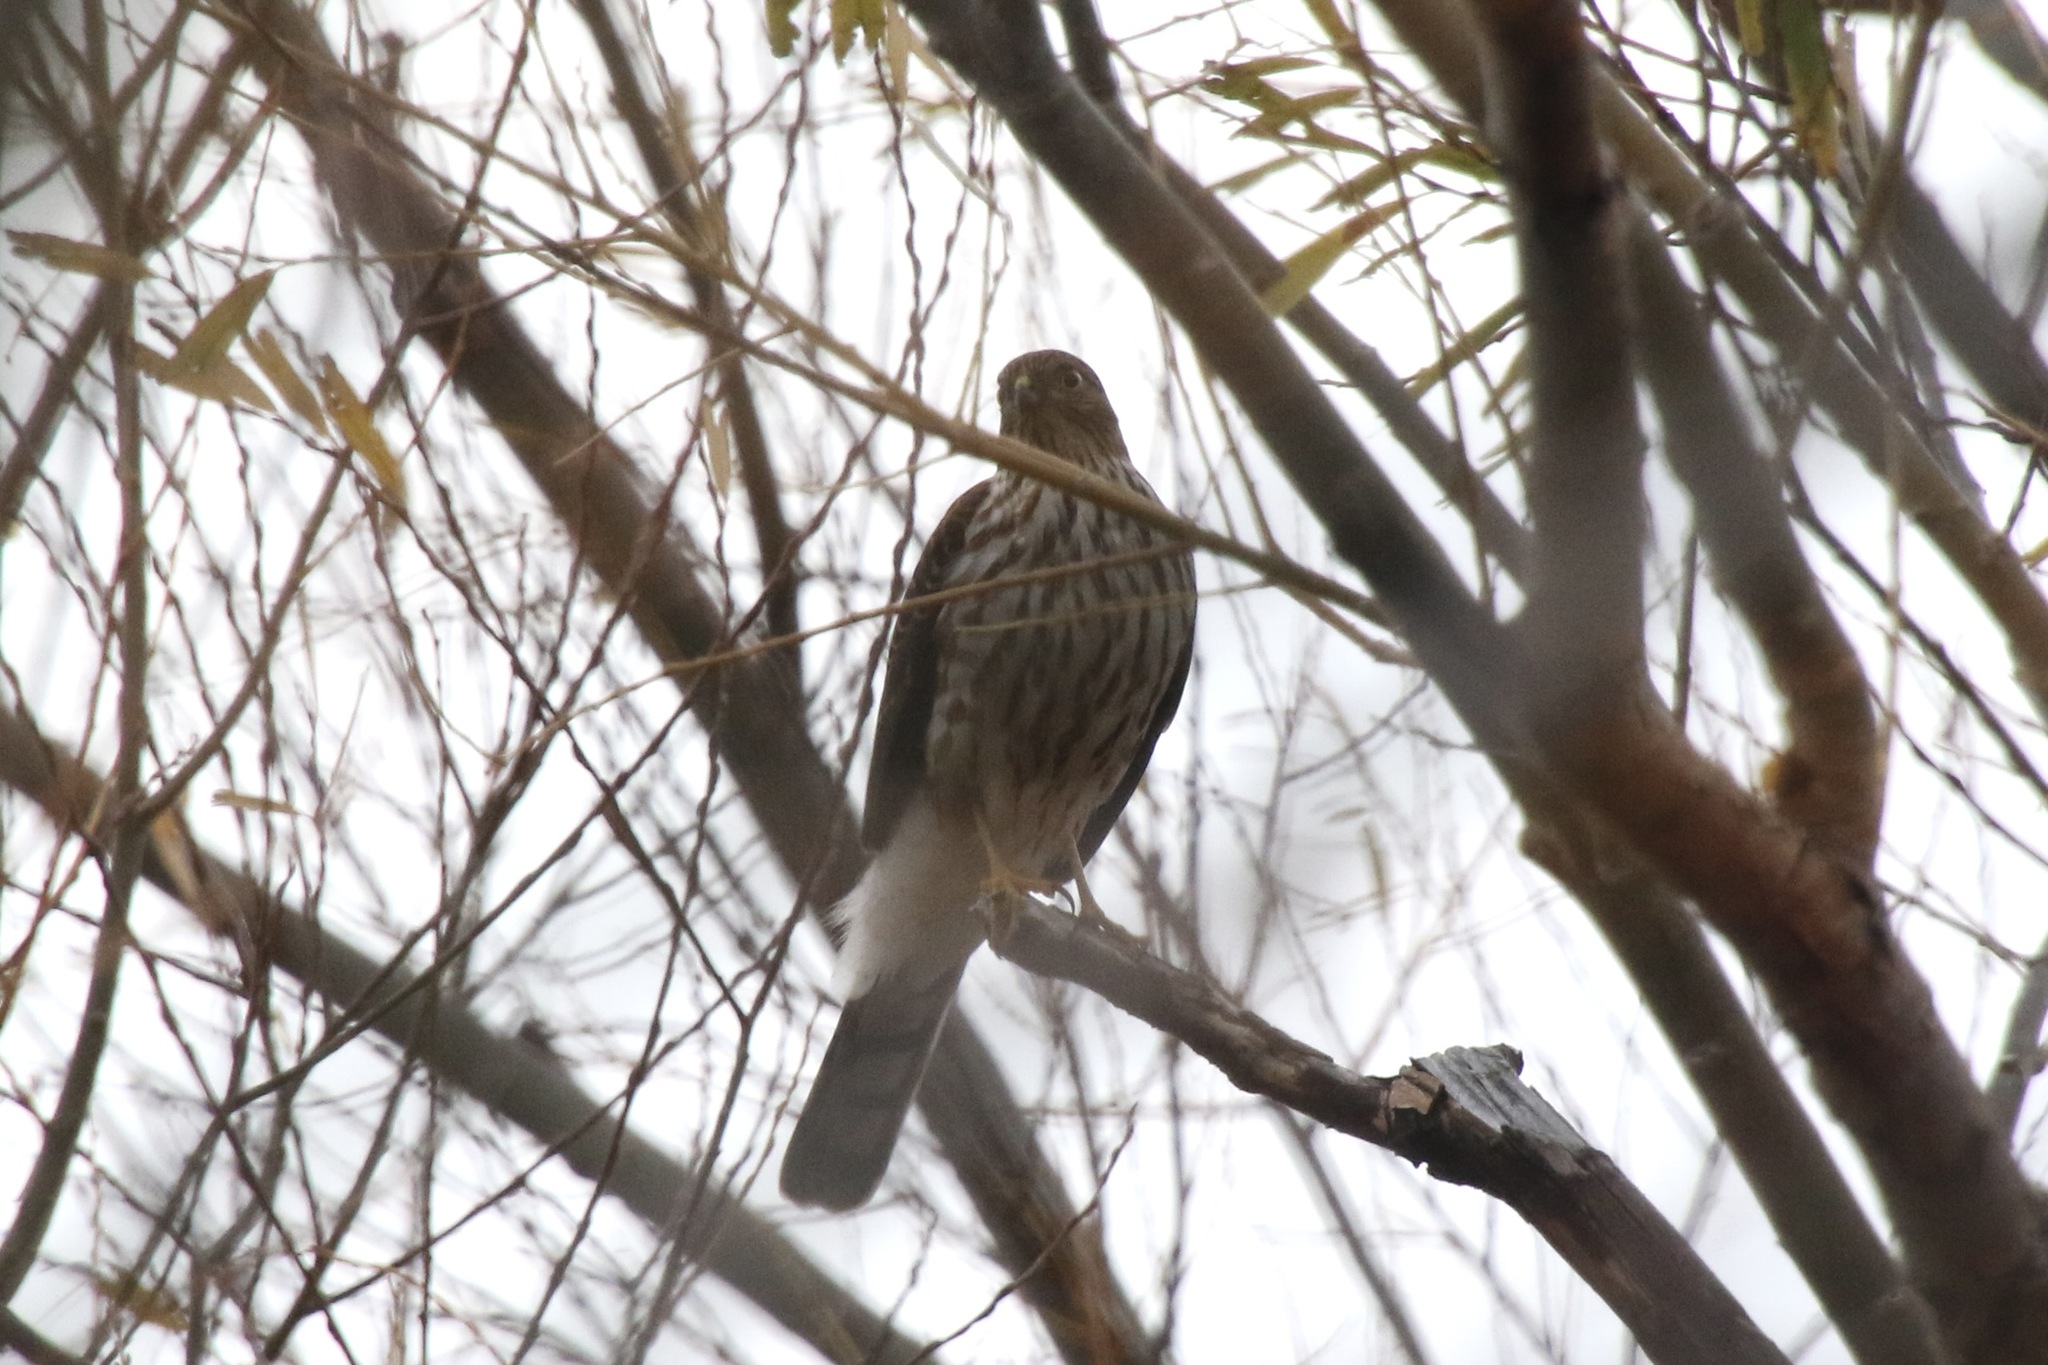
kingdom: Animalia
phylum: Chordata
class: Aves
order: Accipitriformes
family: Accipitridae
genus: Accipiter
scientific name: Accipiter striatus
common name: Sharp-shinned hawk
